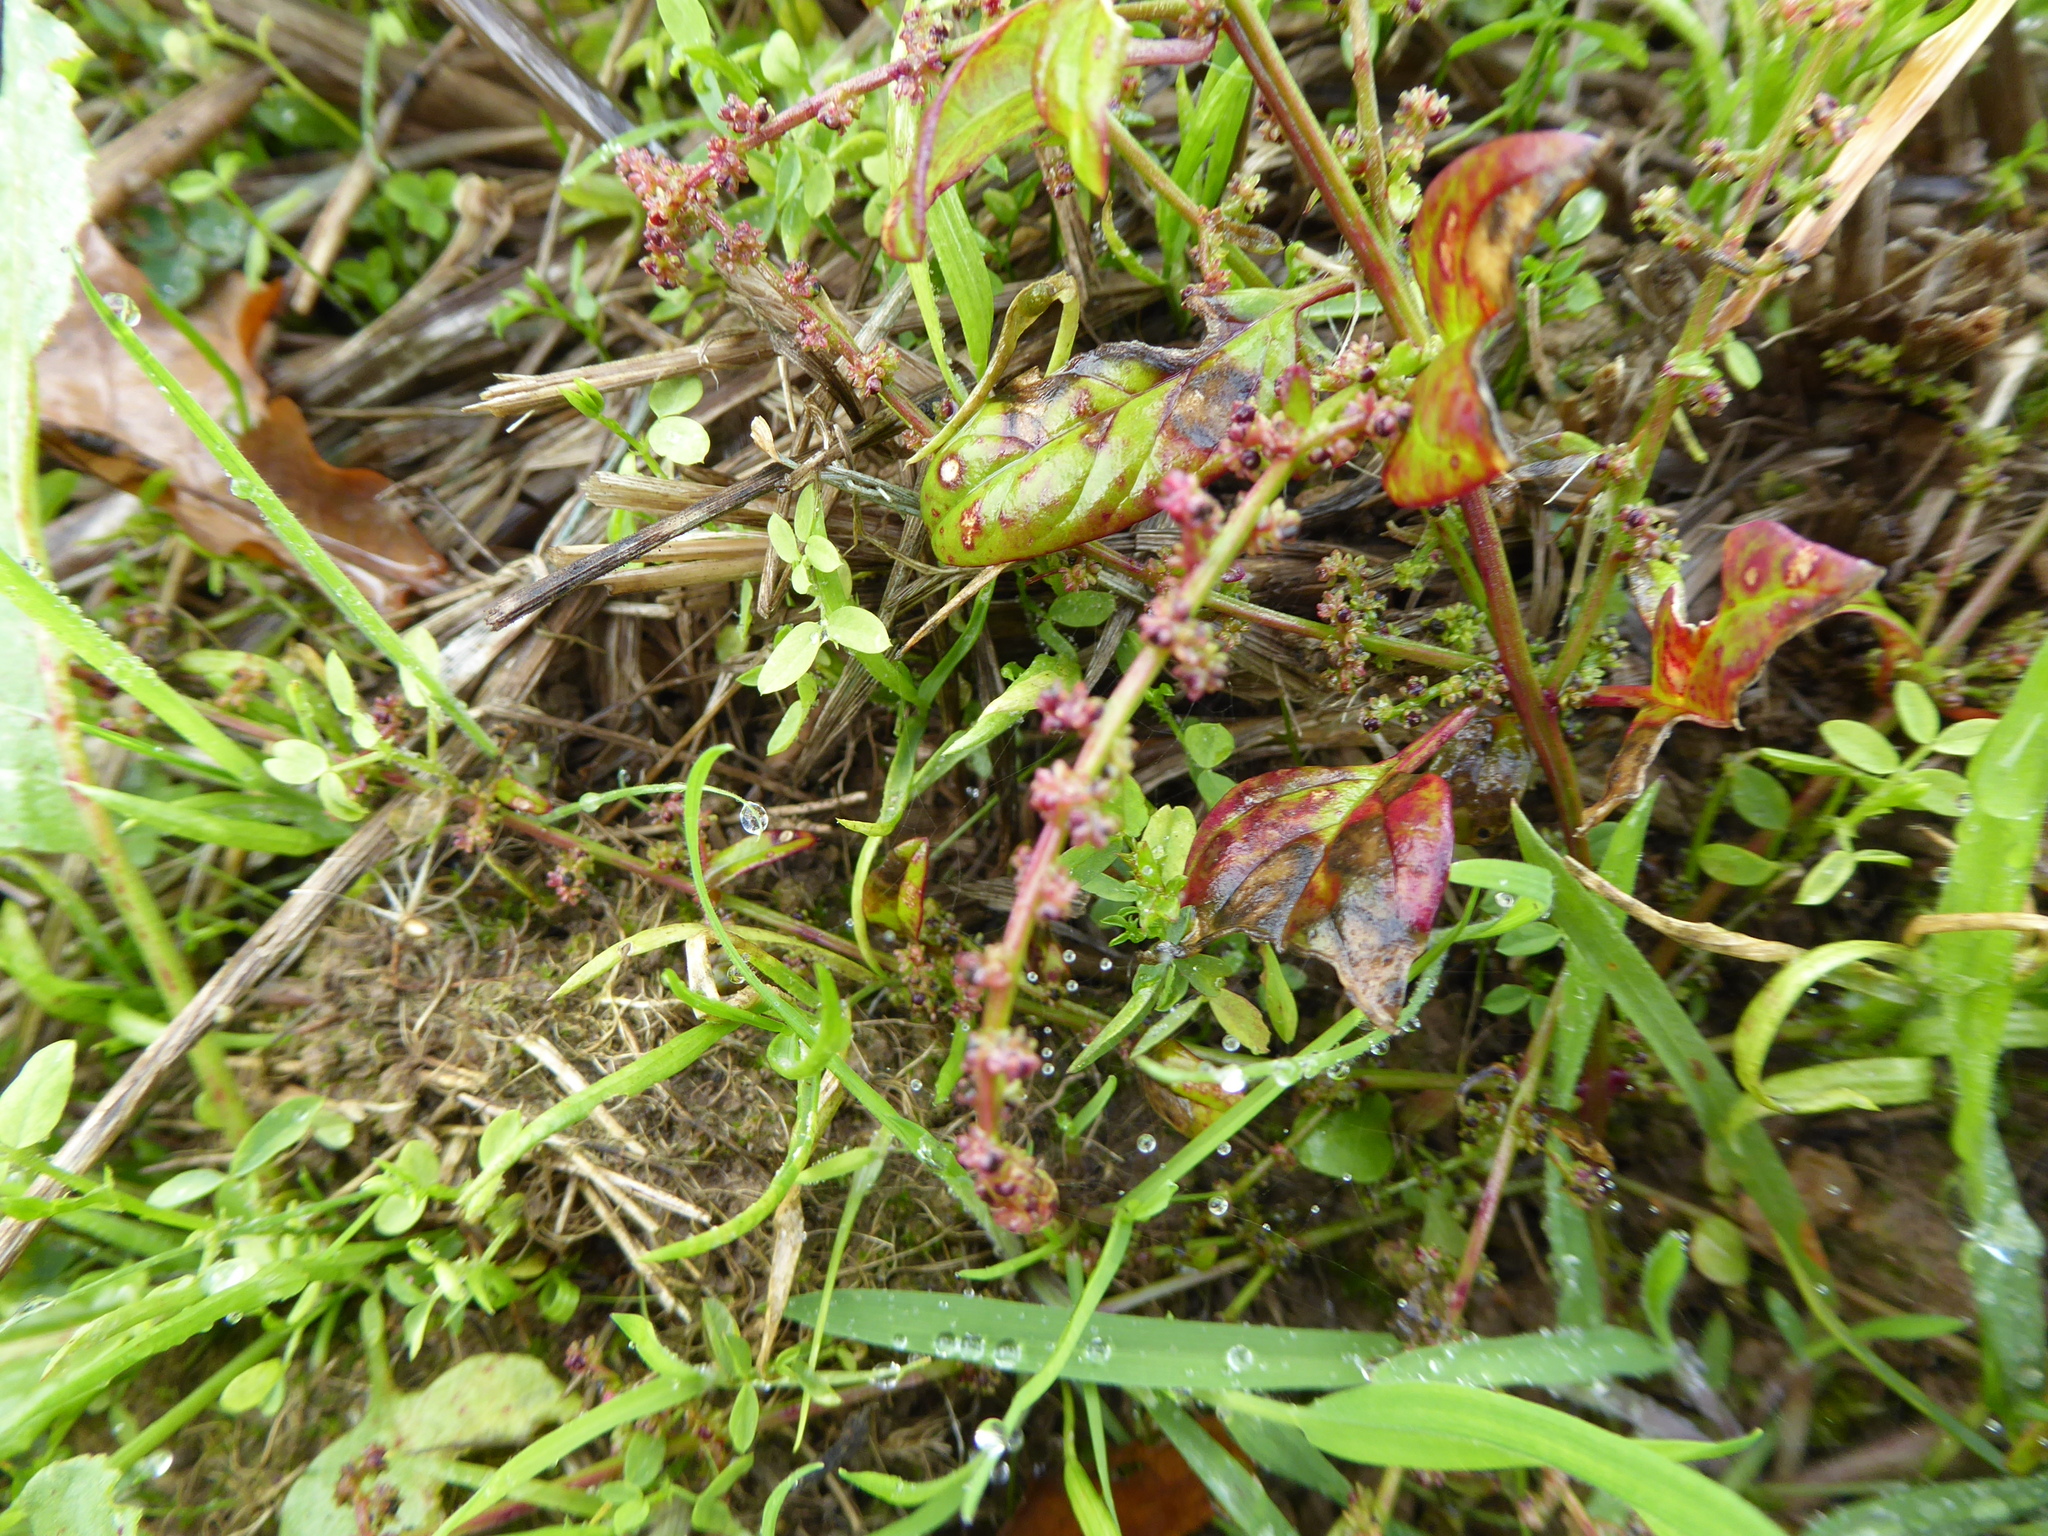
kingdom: Plantae
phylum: Tracheophyta
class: Magnoliopsida
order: Caryophyllales
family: Amaranthaceae
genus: Lipandra
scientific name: Lipandra polysperma
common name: Many-seed goosefoot
